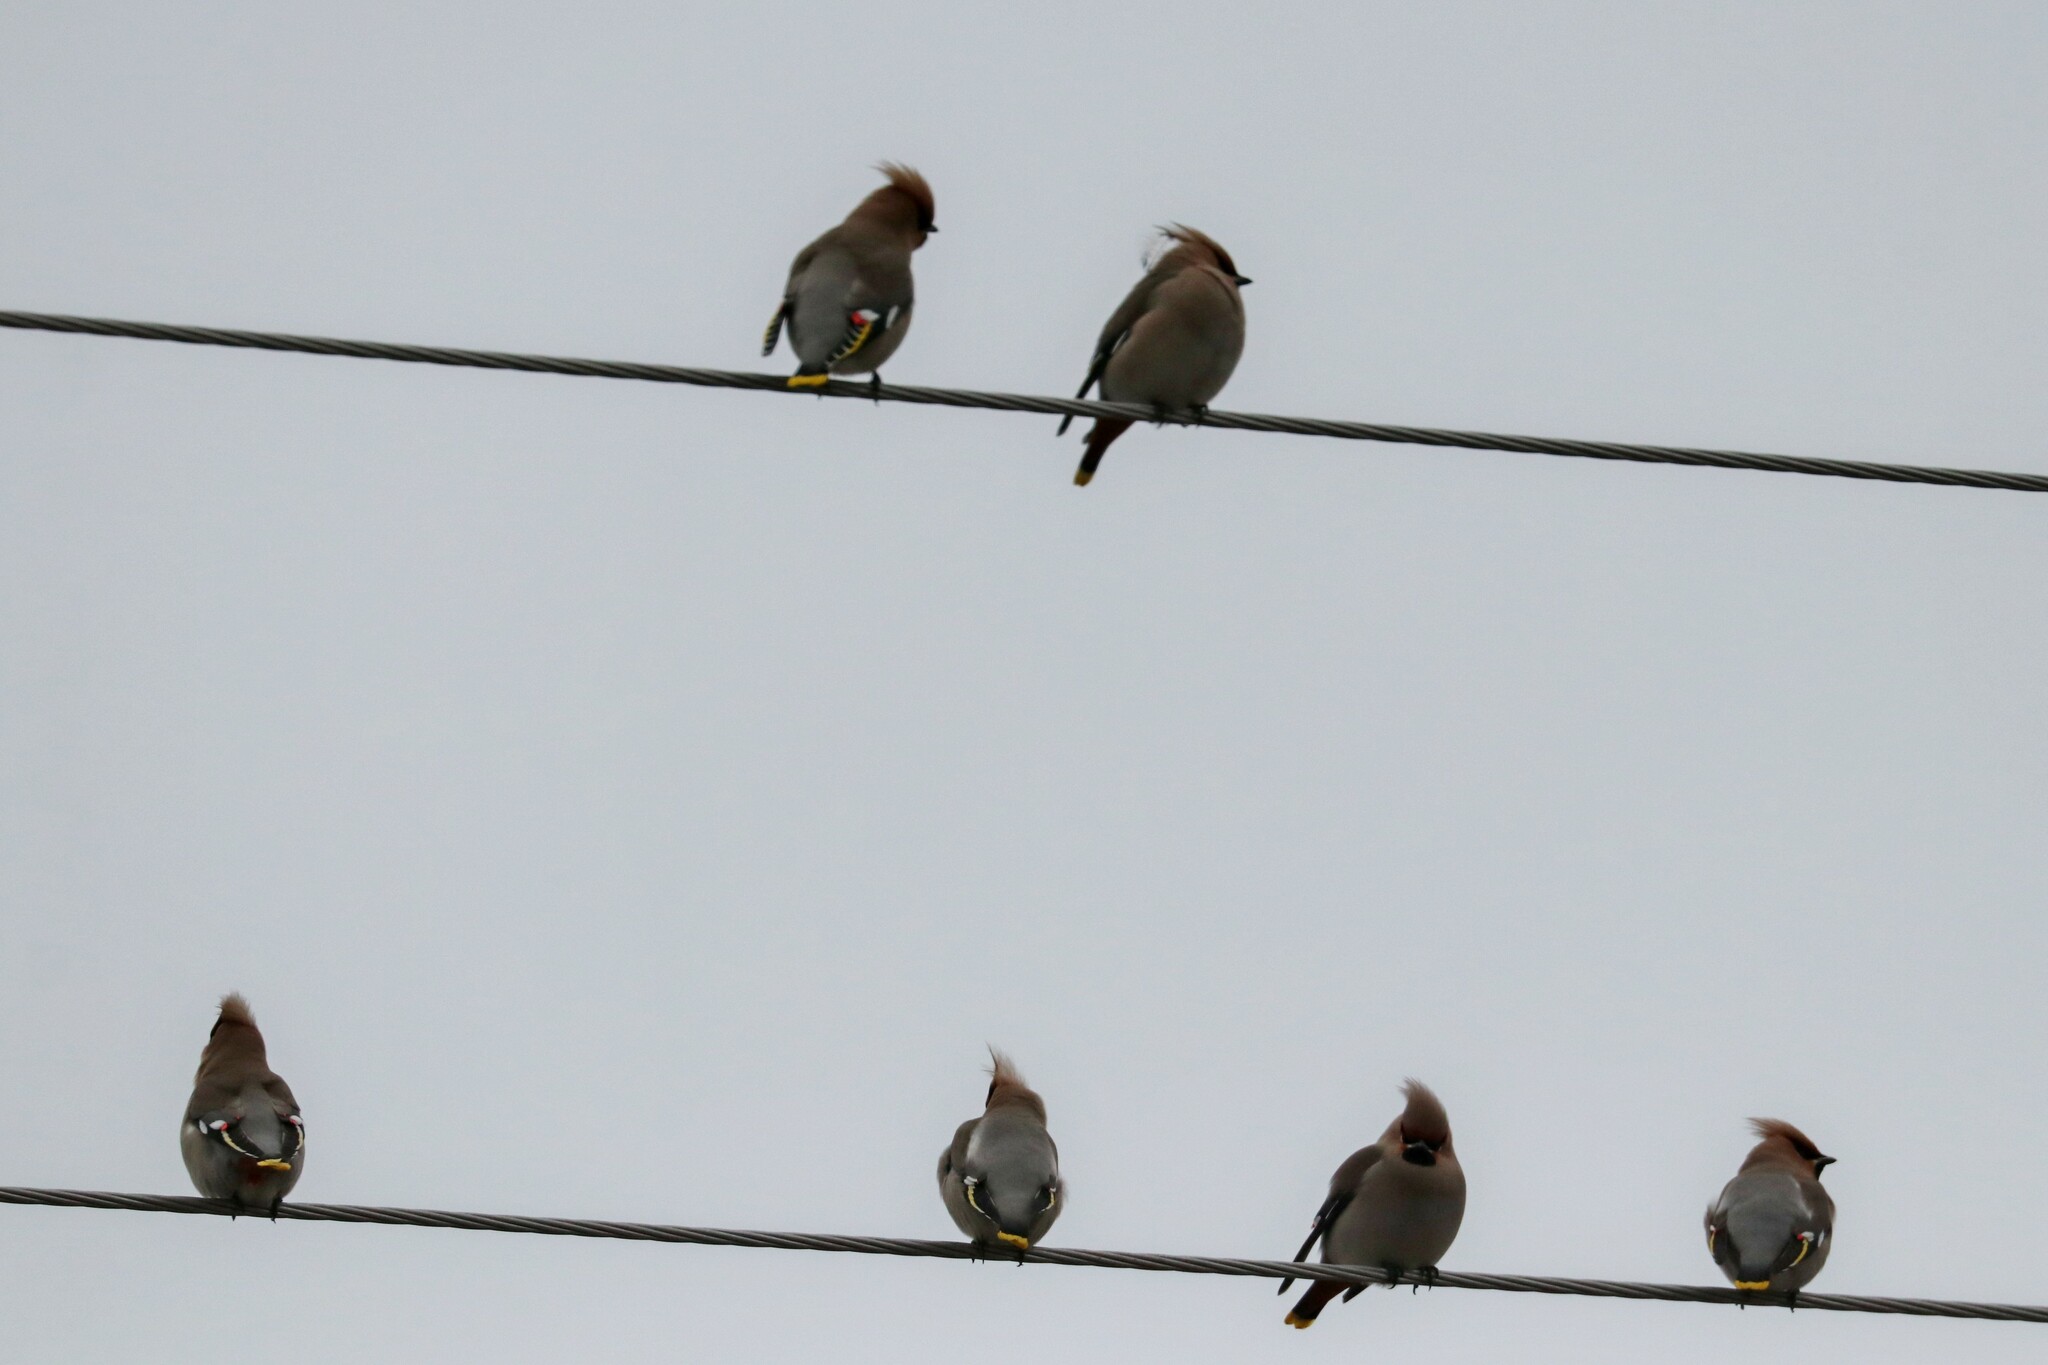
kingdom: Animalia
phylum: Chordata
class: Aves
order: Passeriformes
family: Bombycillidae
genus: Bombycilla
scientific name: Bombycilla garrulus
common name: Bohemian waxwing
